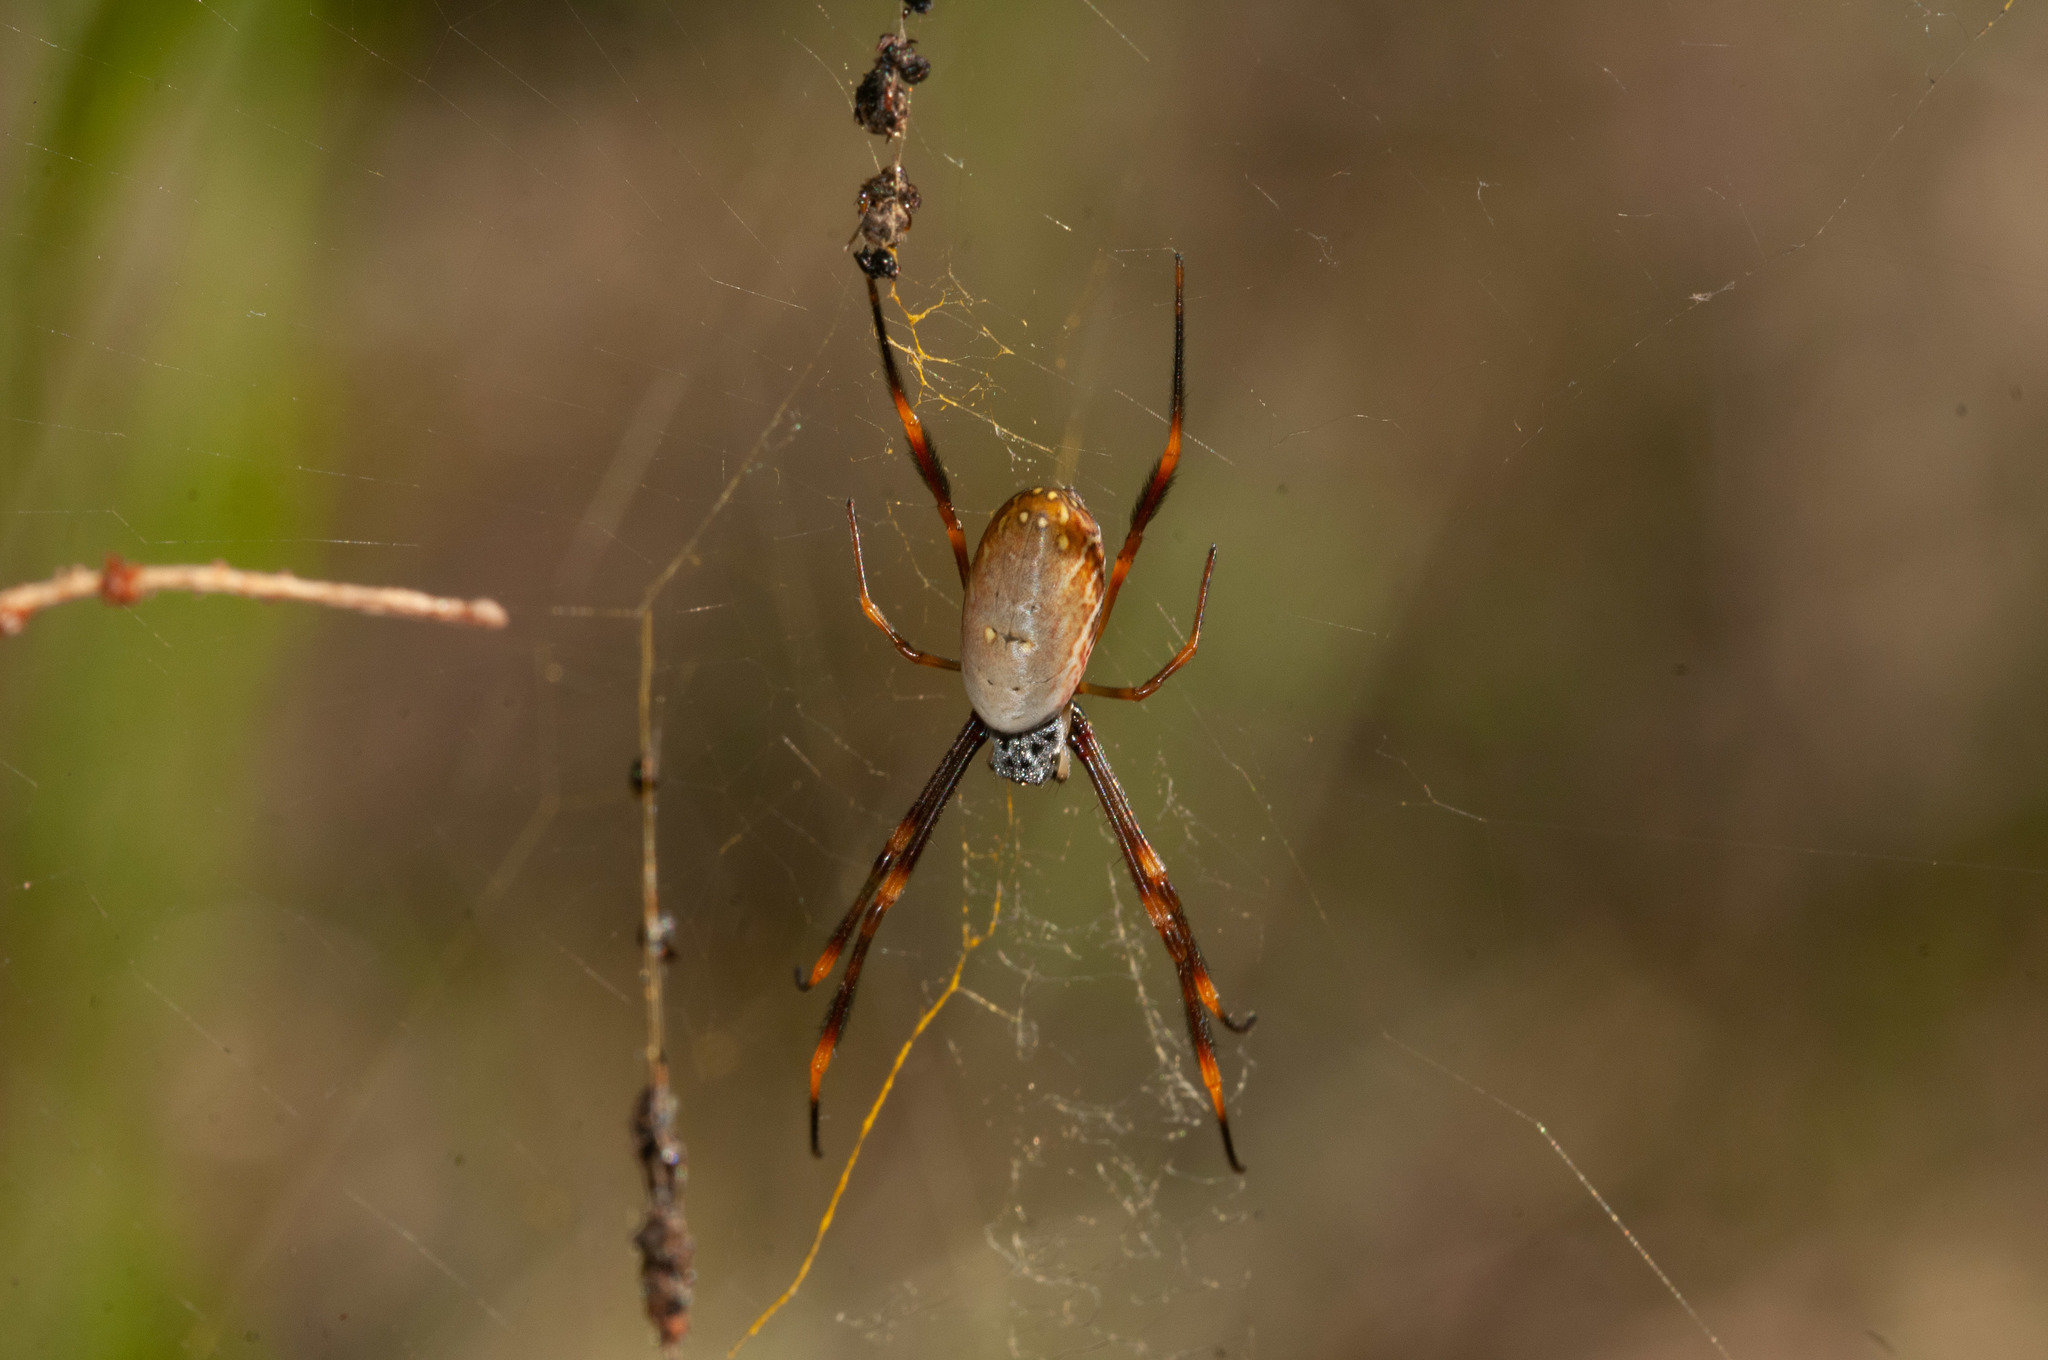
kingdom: Animalia
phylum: Arthropoda
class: Arachnida
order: Araneae
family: Araneidae
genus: Trichonephila
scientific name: Trichonephila plumipes
